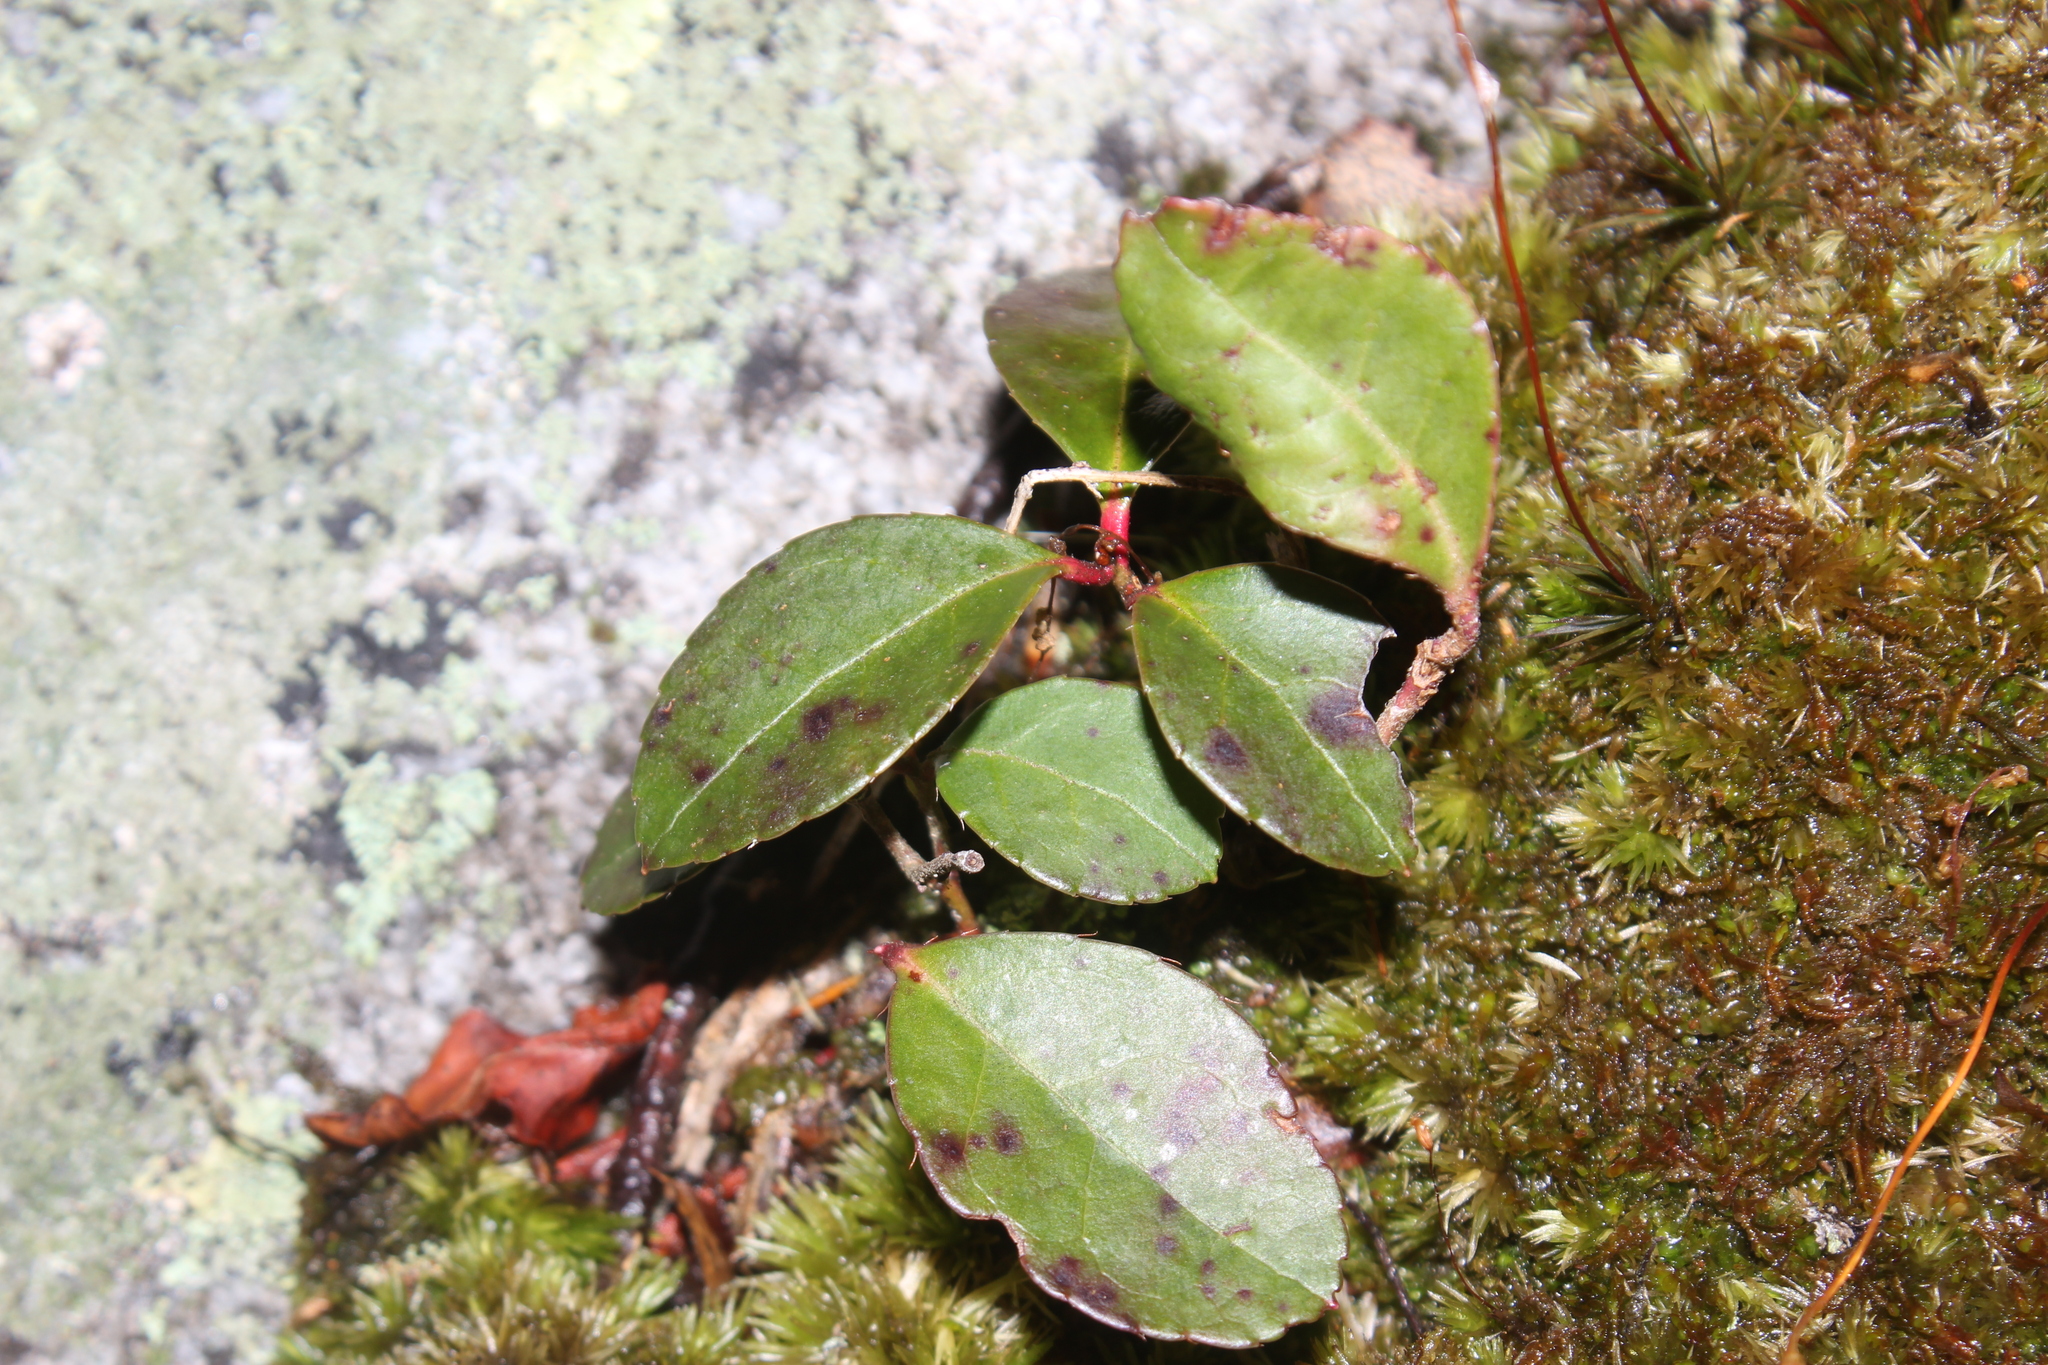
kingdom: Plantae
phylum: Tracheophyta
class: Magnoliopsida
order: Ericales
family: Ericaceae
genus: Gaultheria
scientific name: Gaultheria procumbens
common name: Checkerberry
